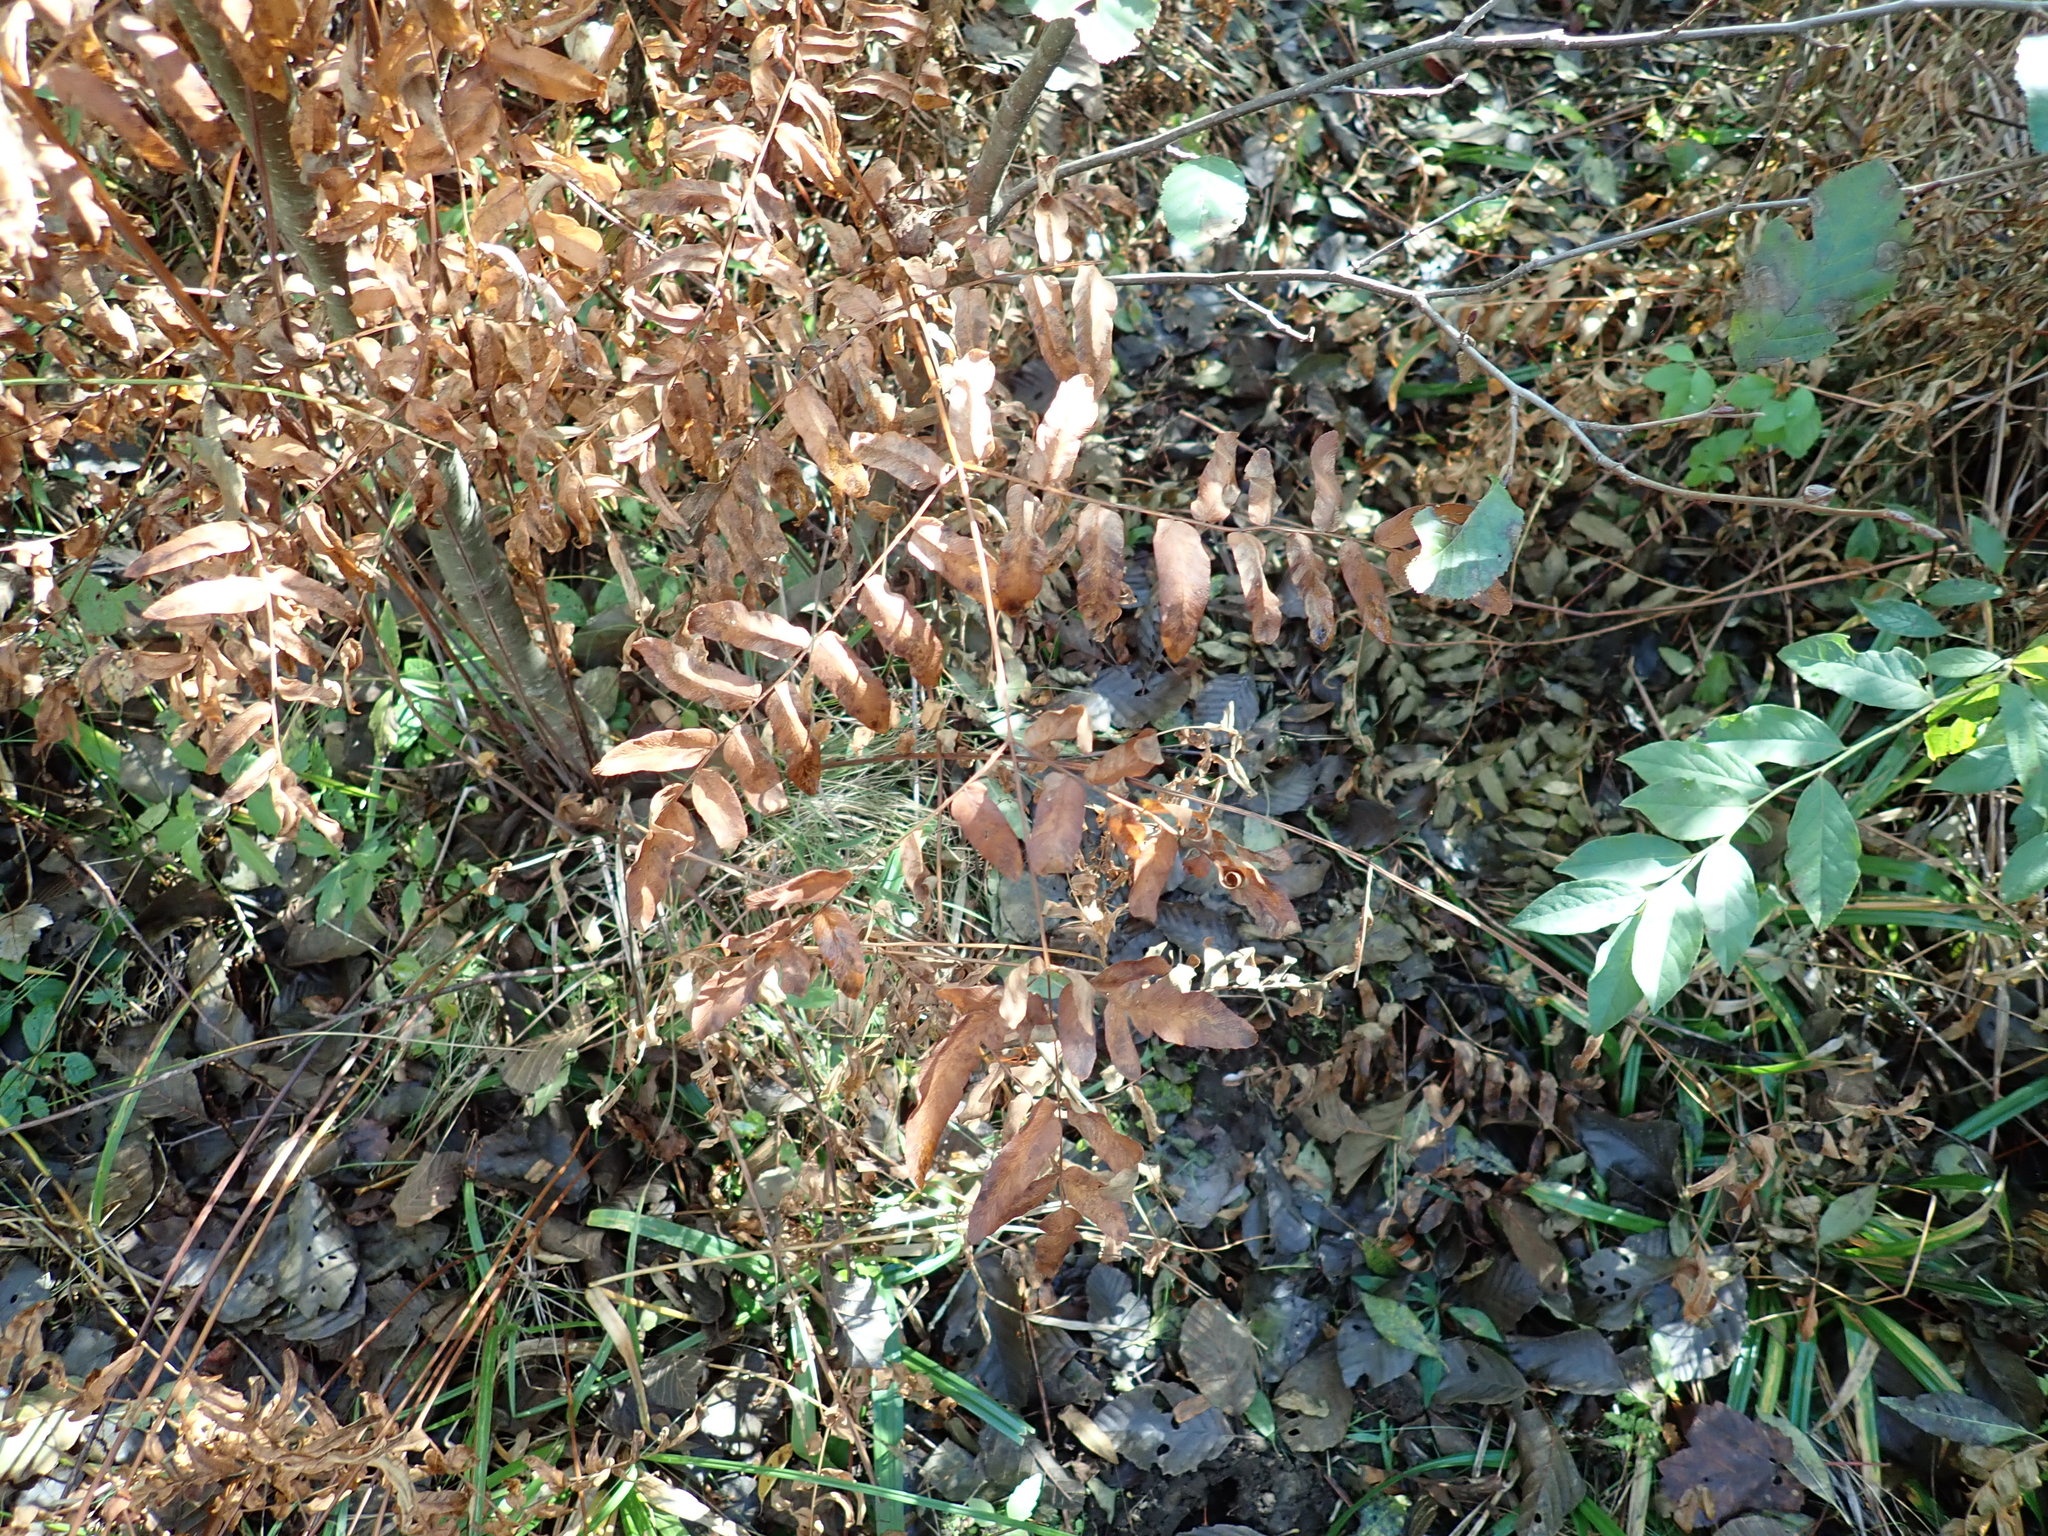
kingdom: Plantae
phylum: Tracheophyta
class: Polypodiopsida
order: Osmundales
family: Osmundaceae
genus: Osmunda
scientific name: Osmunda spectabilis
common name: American royal fern
